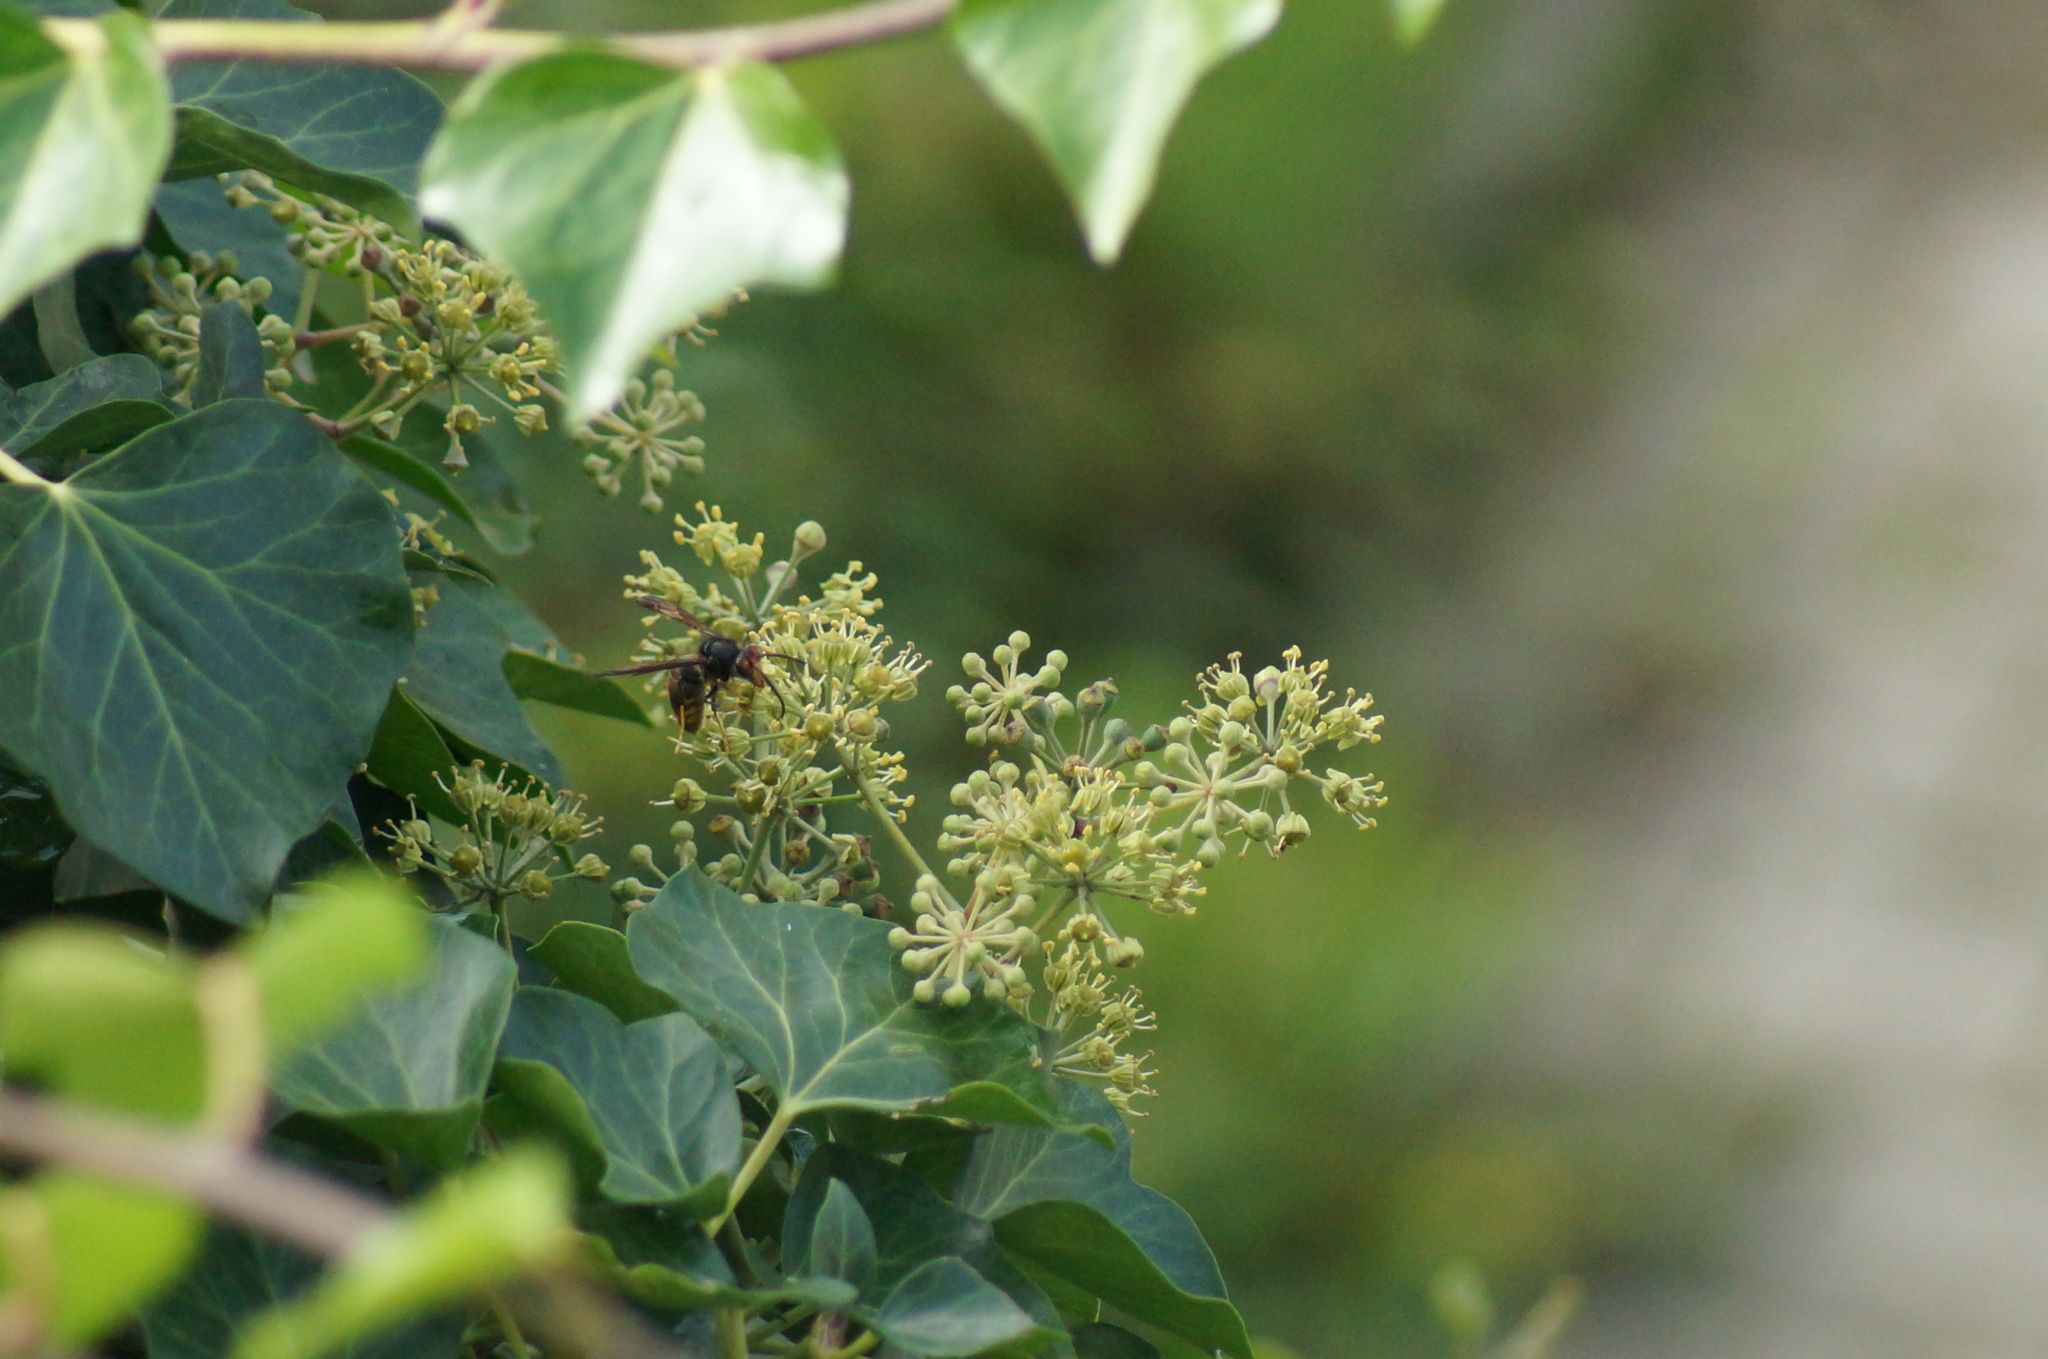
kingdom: Animalia
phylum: Arthropoda
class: Insecta
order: Hymenoptera
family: Vespidae
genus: Vespa
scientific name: Vespa velutina
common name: Asian hornet
